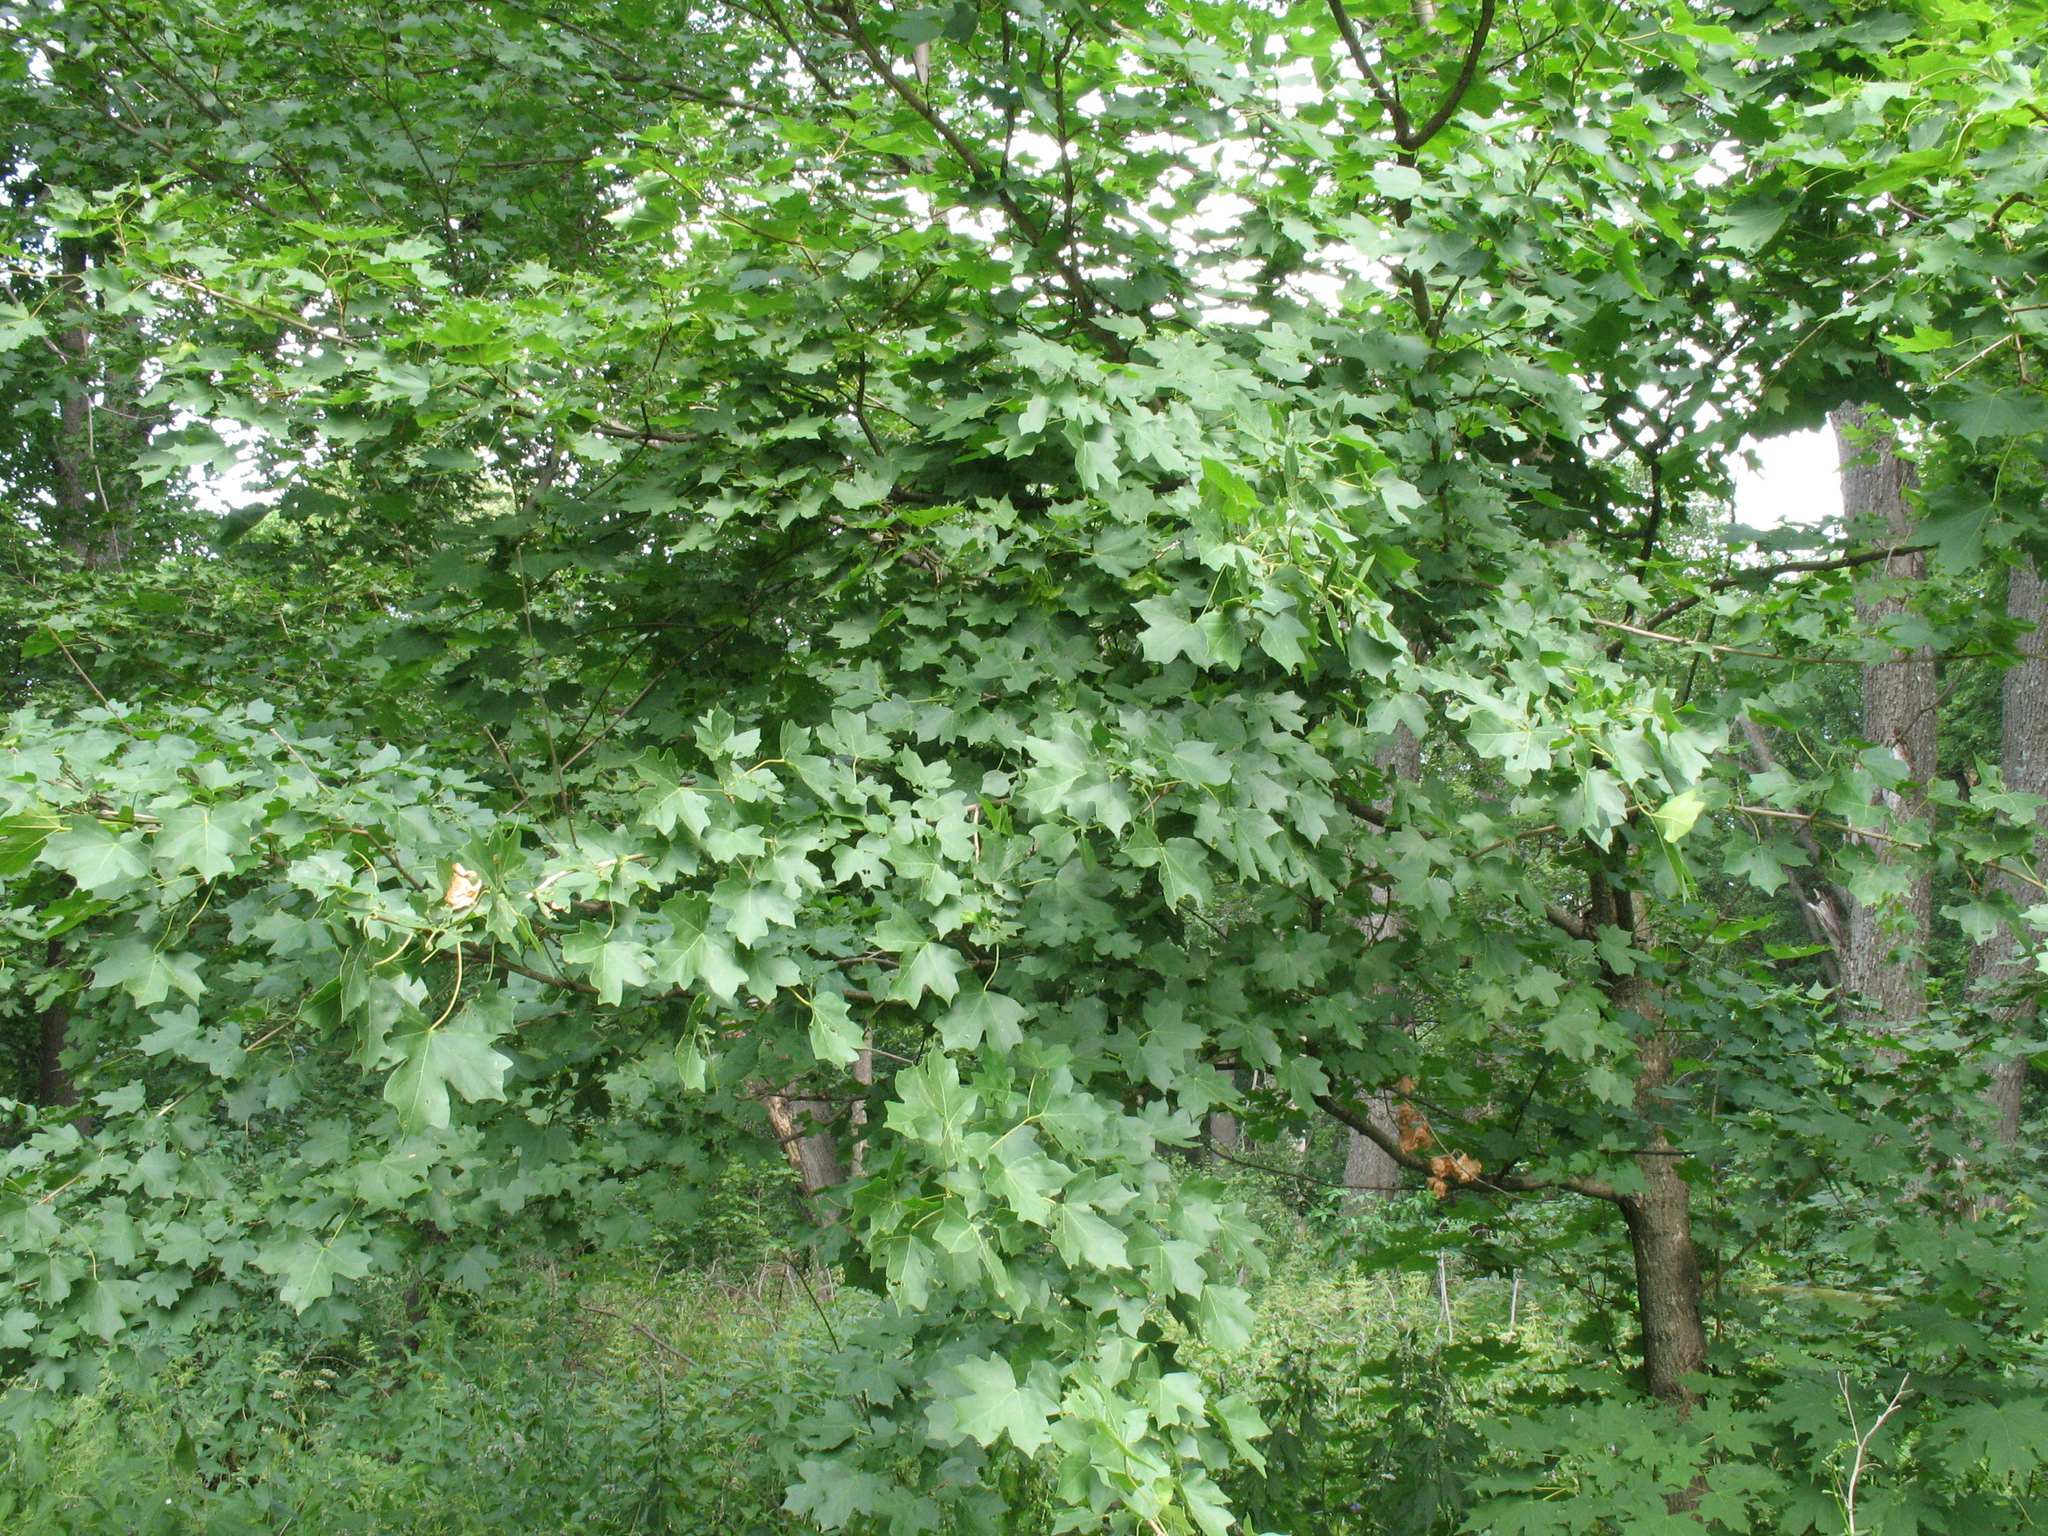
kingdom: Plantae
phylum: Tracheophyta
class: Magnoliopsida
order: Sapindales
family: Sapindaceae
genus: Acer
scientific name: Acer campestre
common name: Field maple
